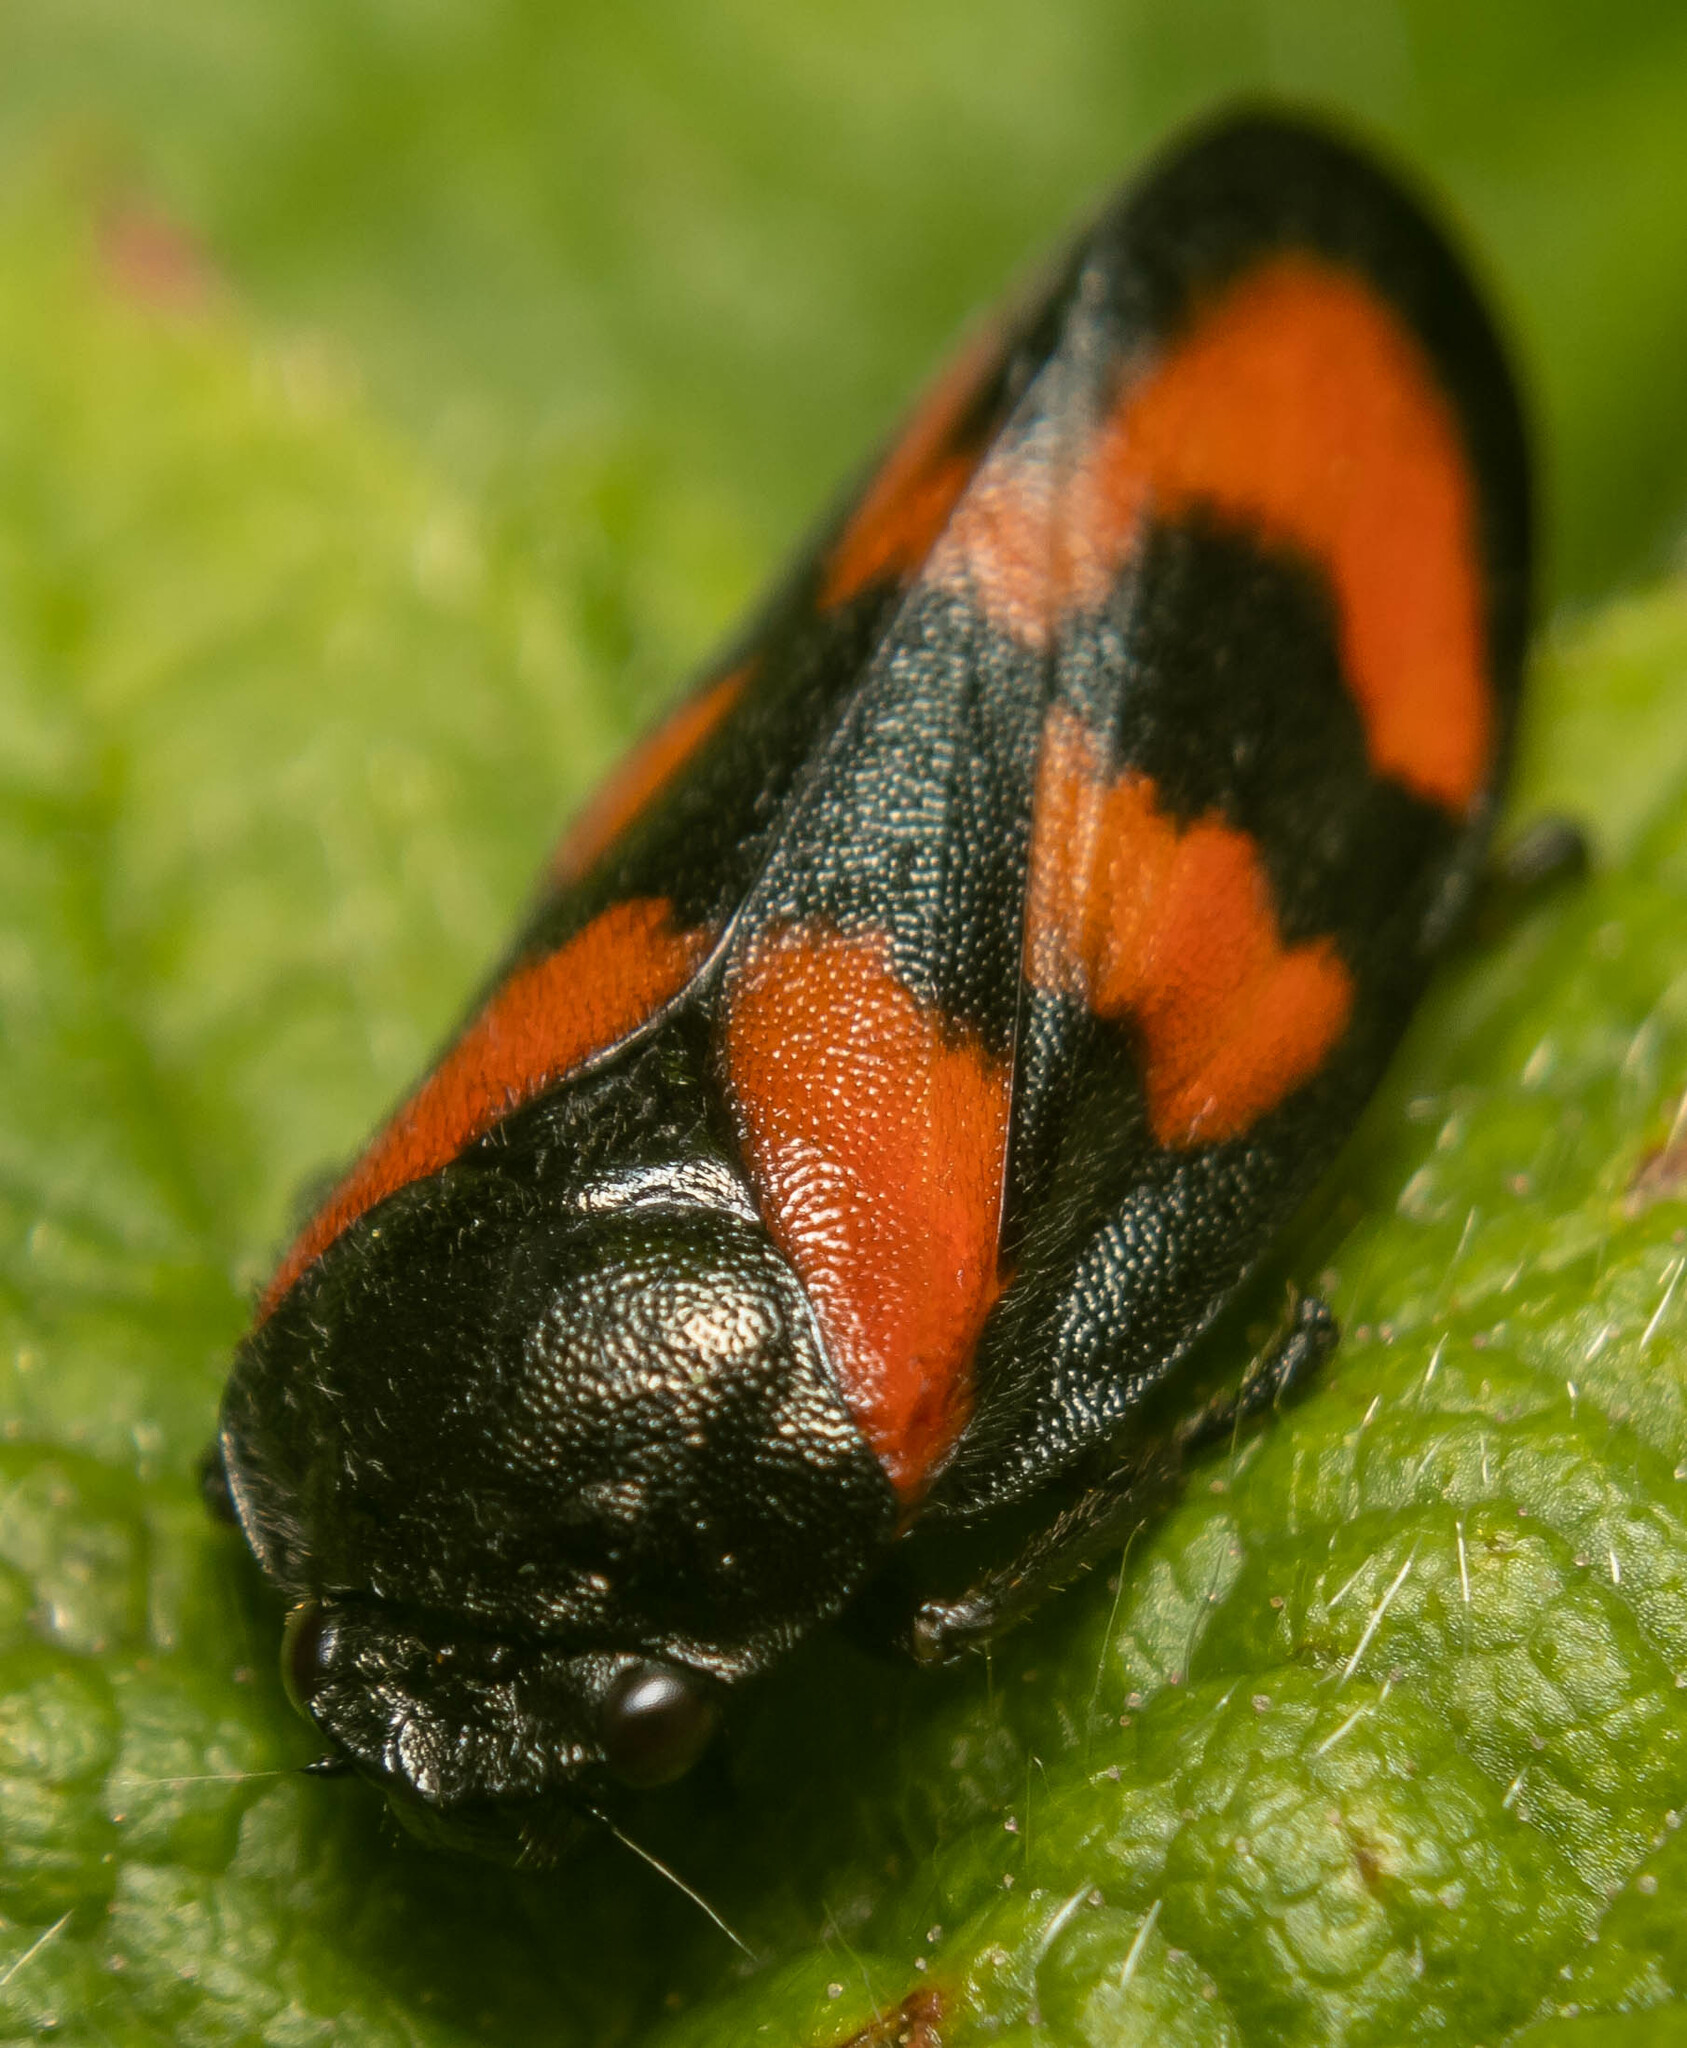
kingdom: Animalia
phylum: Arthropoda
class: Insecta
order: Hemiptera
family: Cercopidae
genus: Cercopis
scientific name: Cercopis vulnerata
